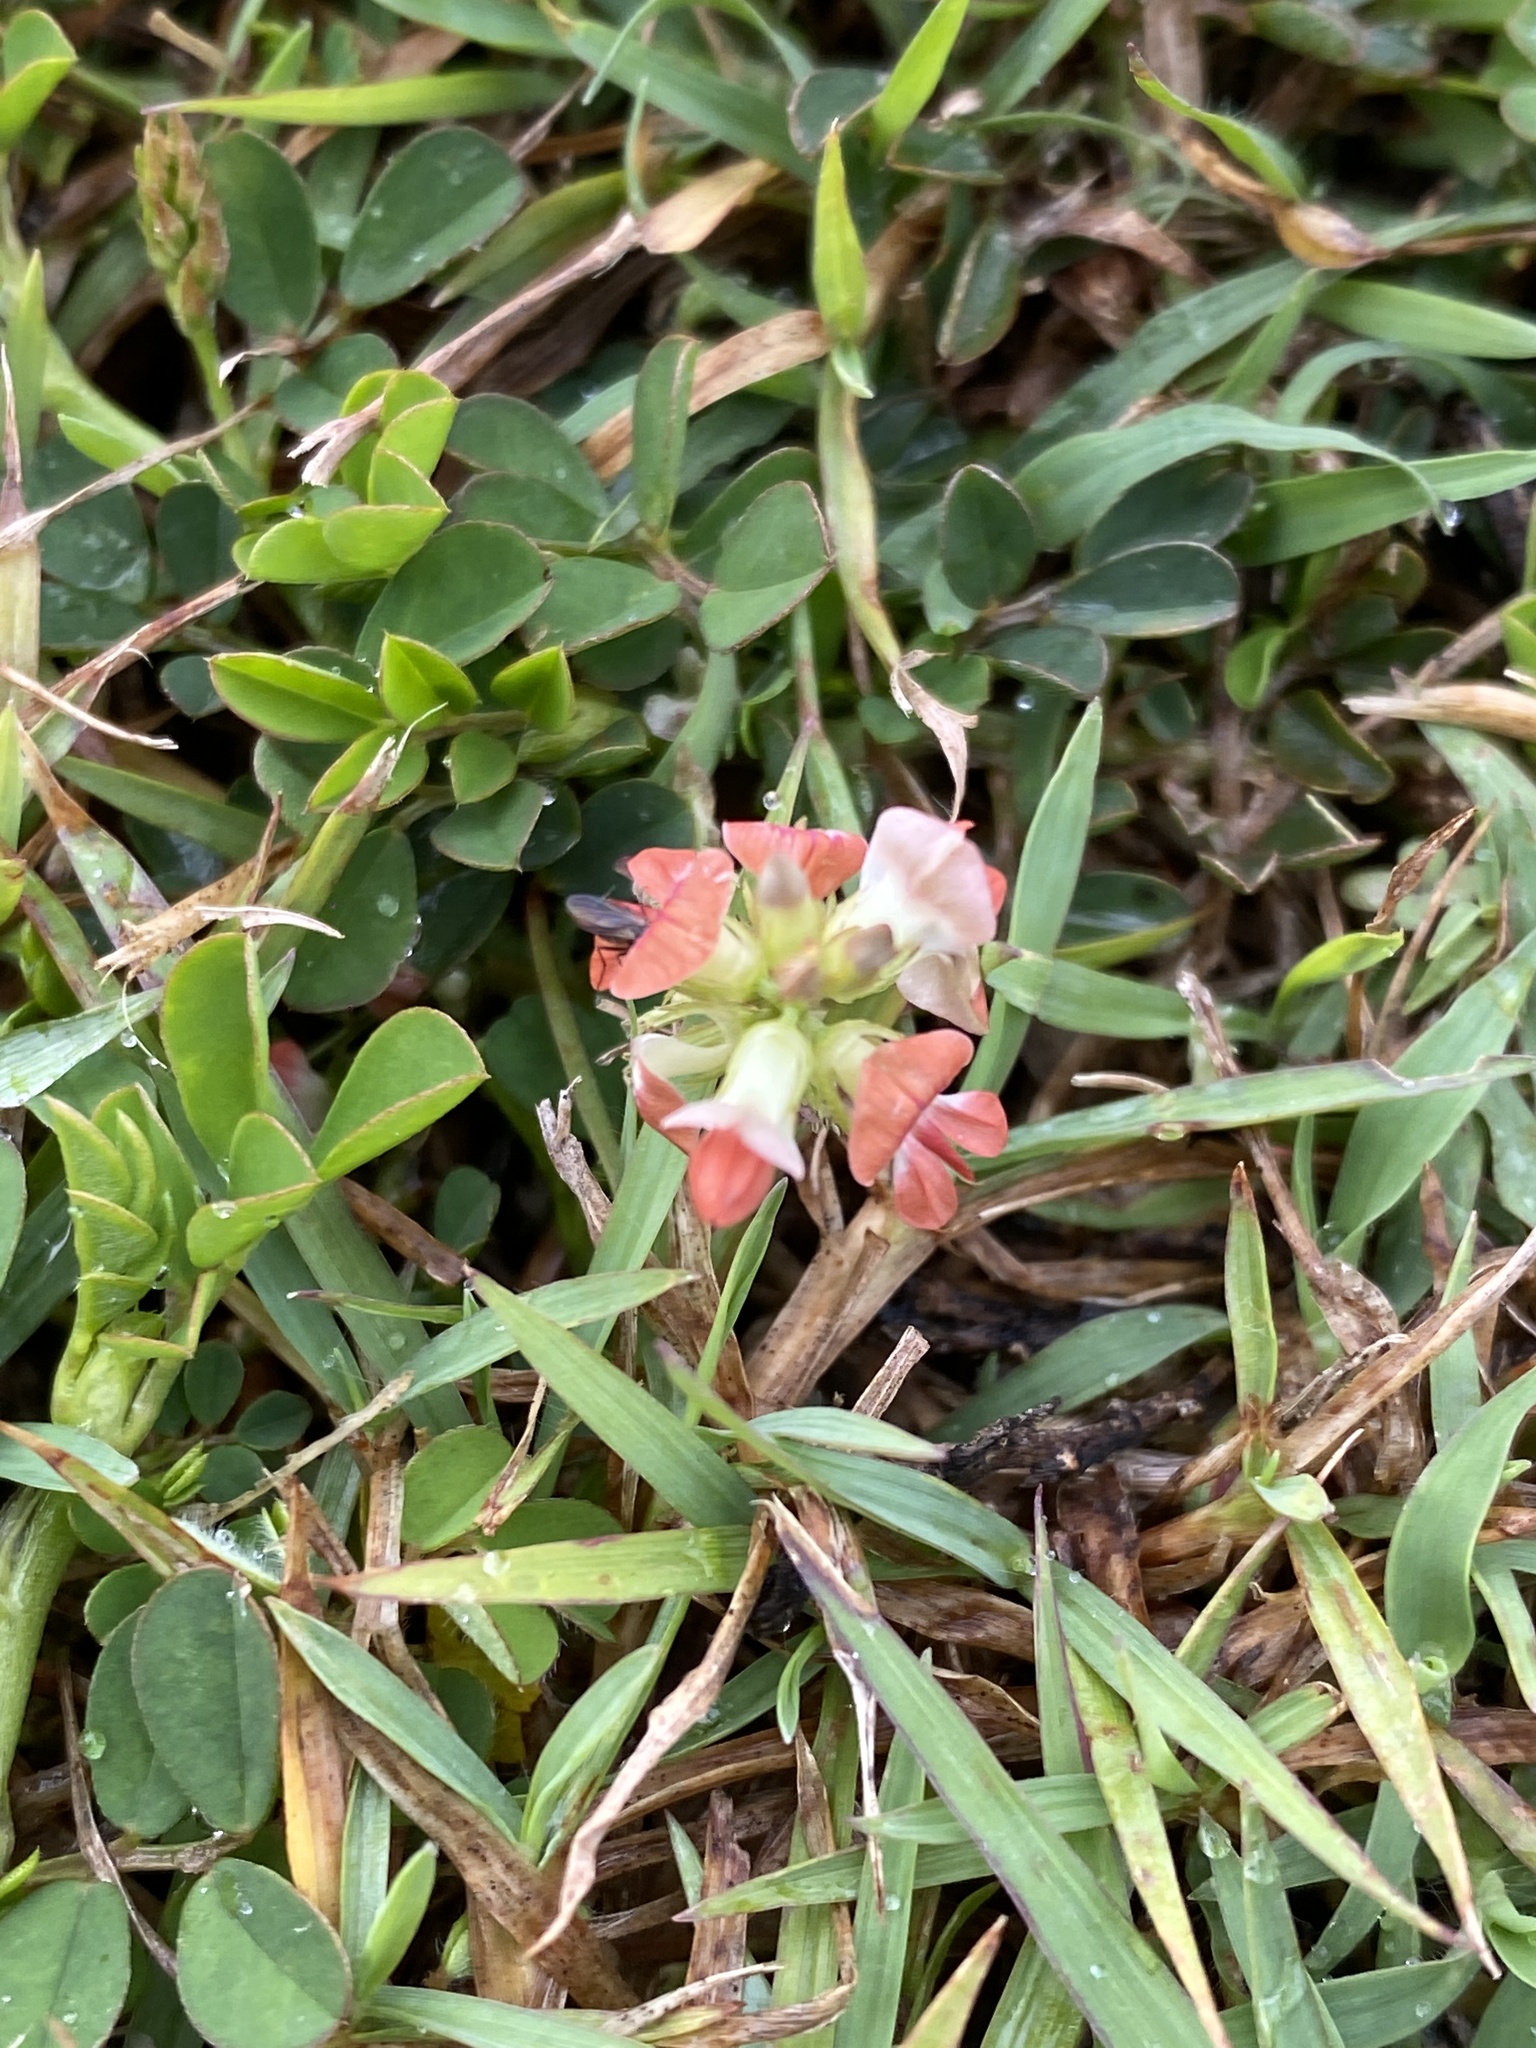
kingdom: Plantae
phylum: Tracheophyta
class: Magnoliopsida
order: Fabales
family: Fabaceae
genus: Indigofera
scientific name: Indigofera spicata
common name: Creeping indigo
